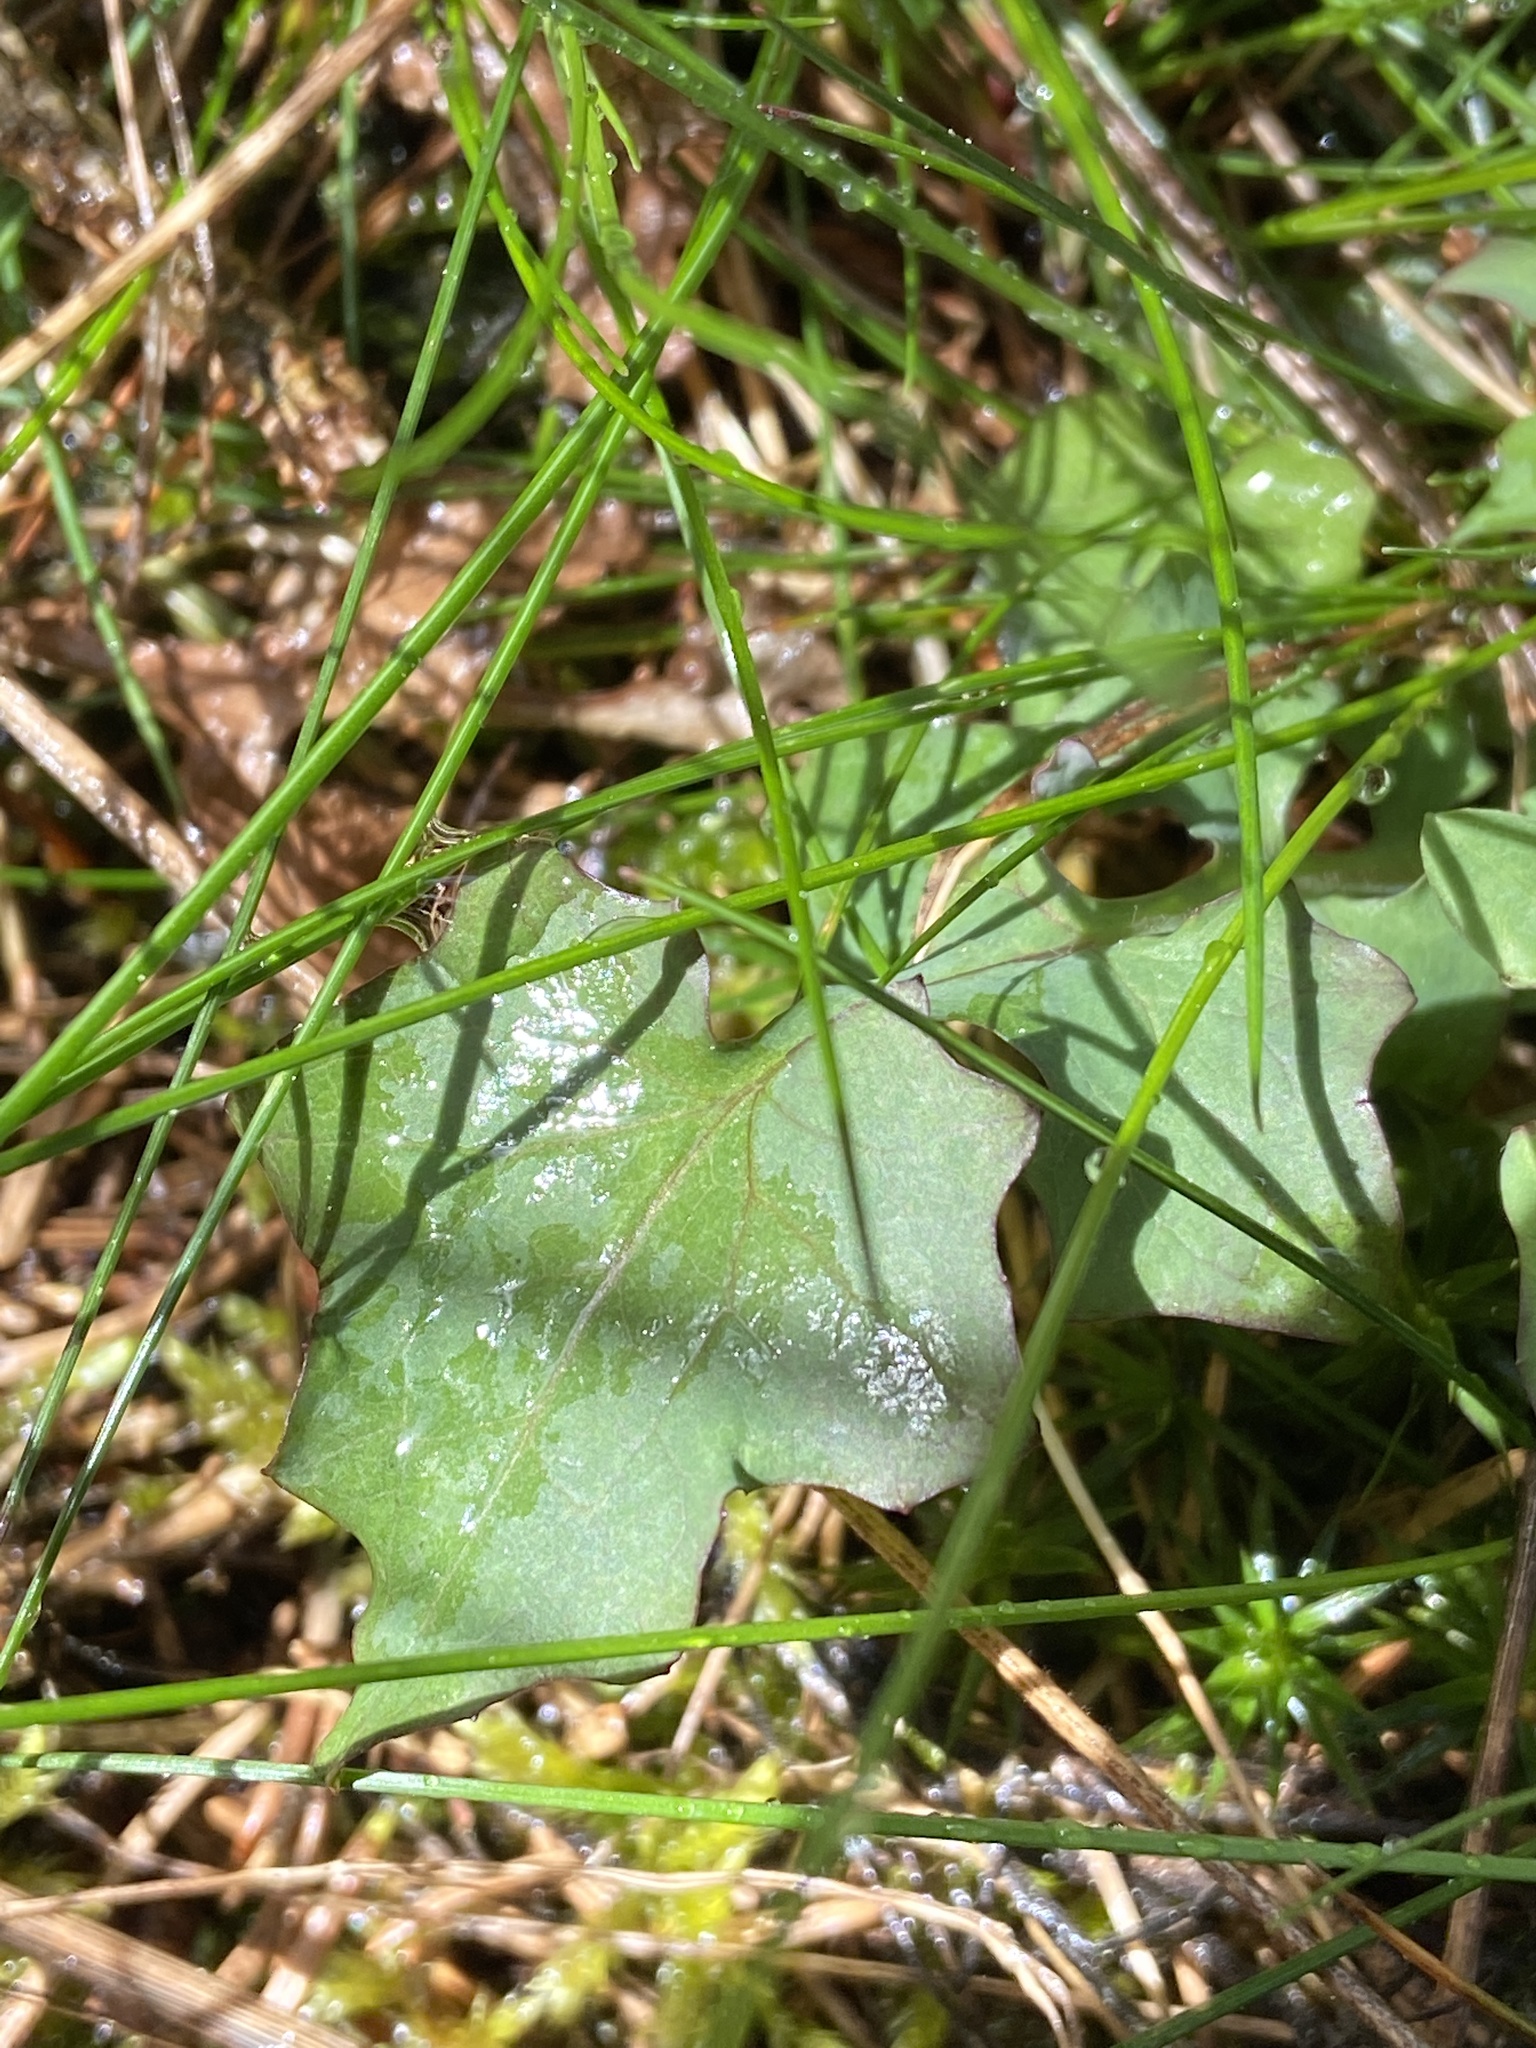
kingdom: Plantae
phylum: Tracheophyta
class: Magnoliopsida
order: Asterales
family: Asteraceae
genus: Mycelis
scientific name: Mycelis muralis
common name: Wall lettuce
